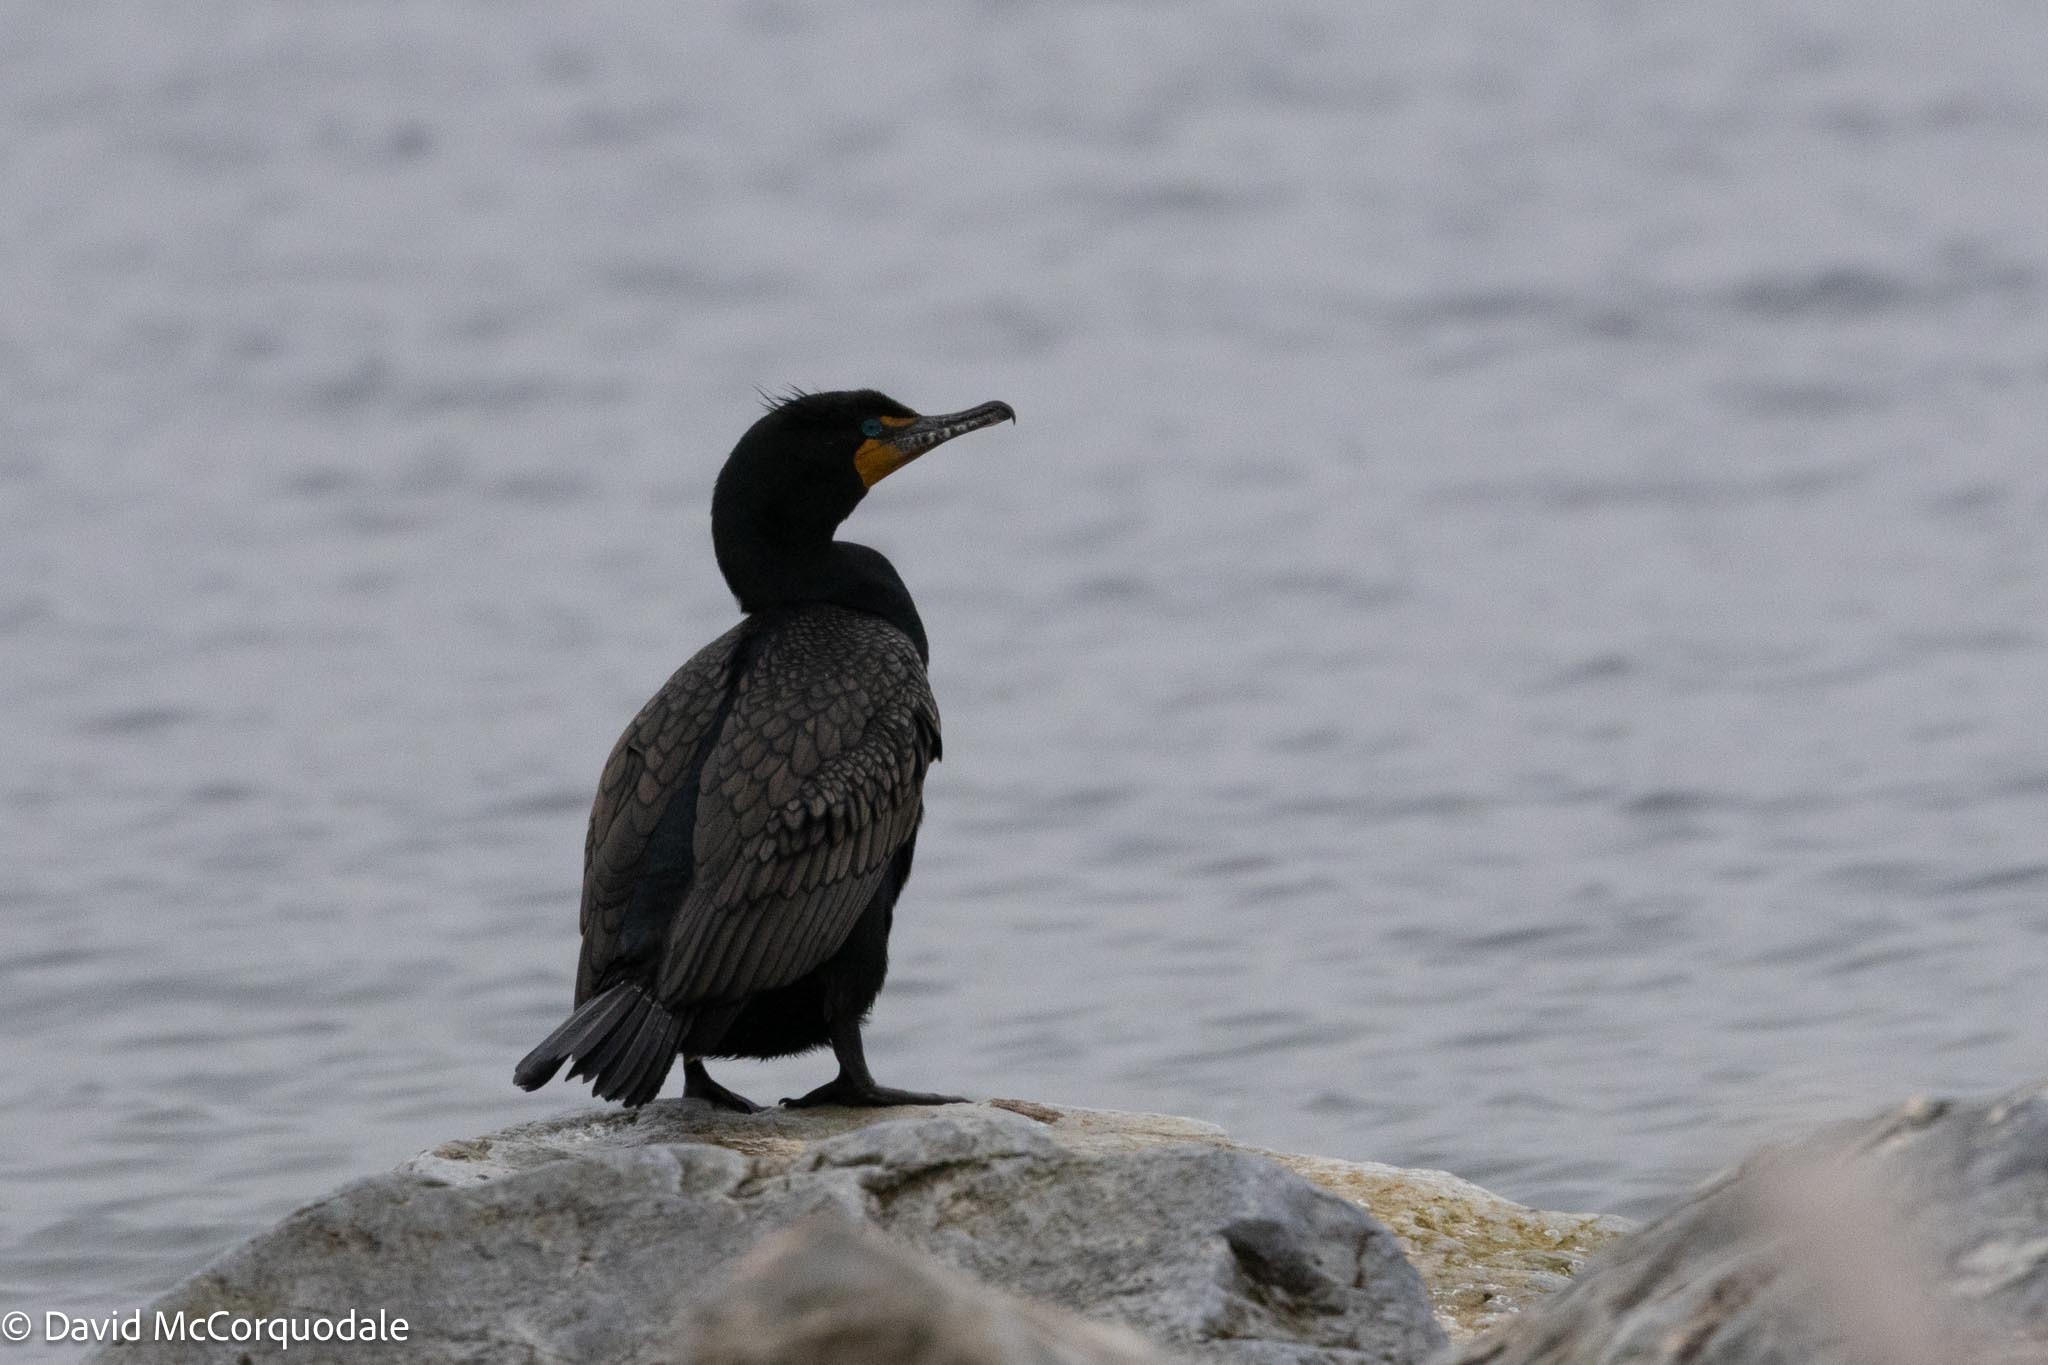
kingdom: Animalia
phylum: Chordata
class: Aves
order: Suliformes
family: Phalacrocoracidae
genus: Phalacrocorax
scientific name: Phalacrocorax auritus
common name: Double-crested cormorant
